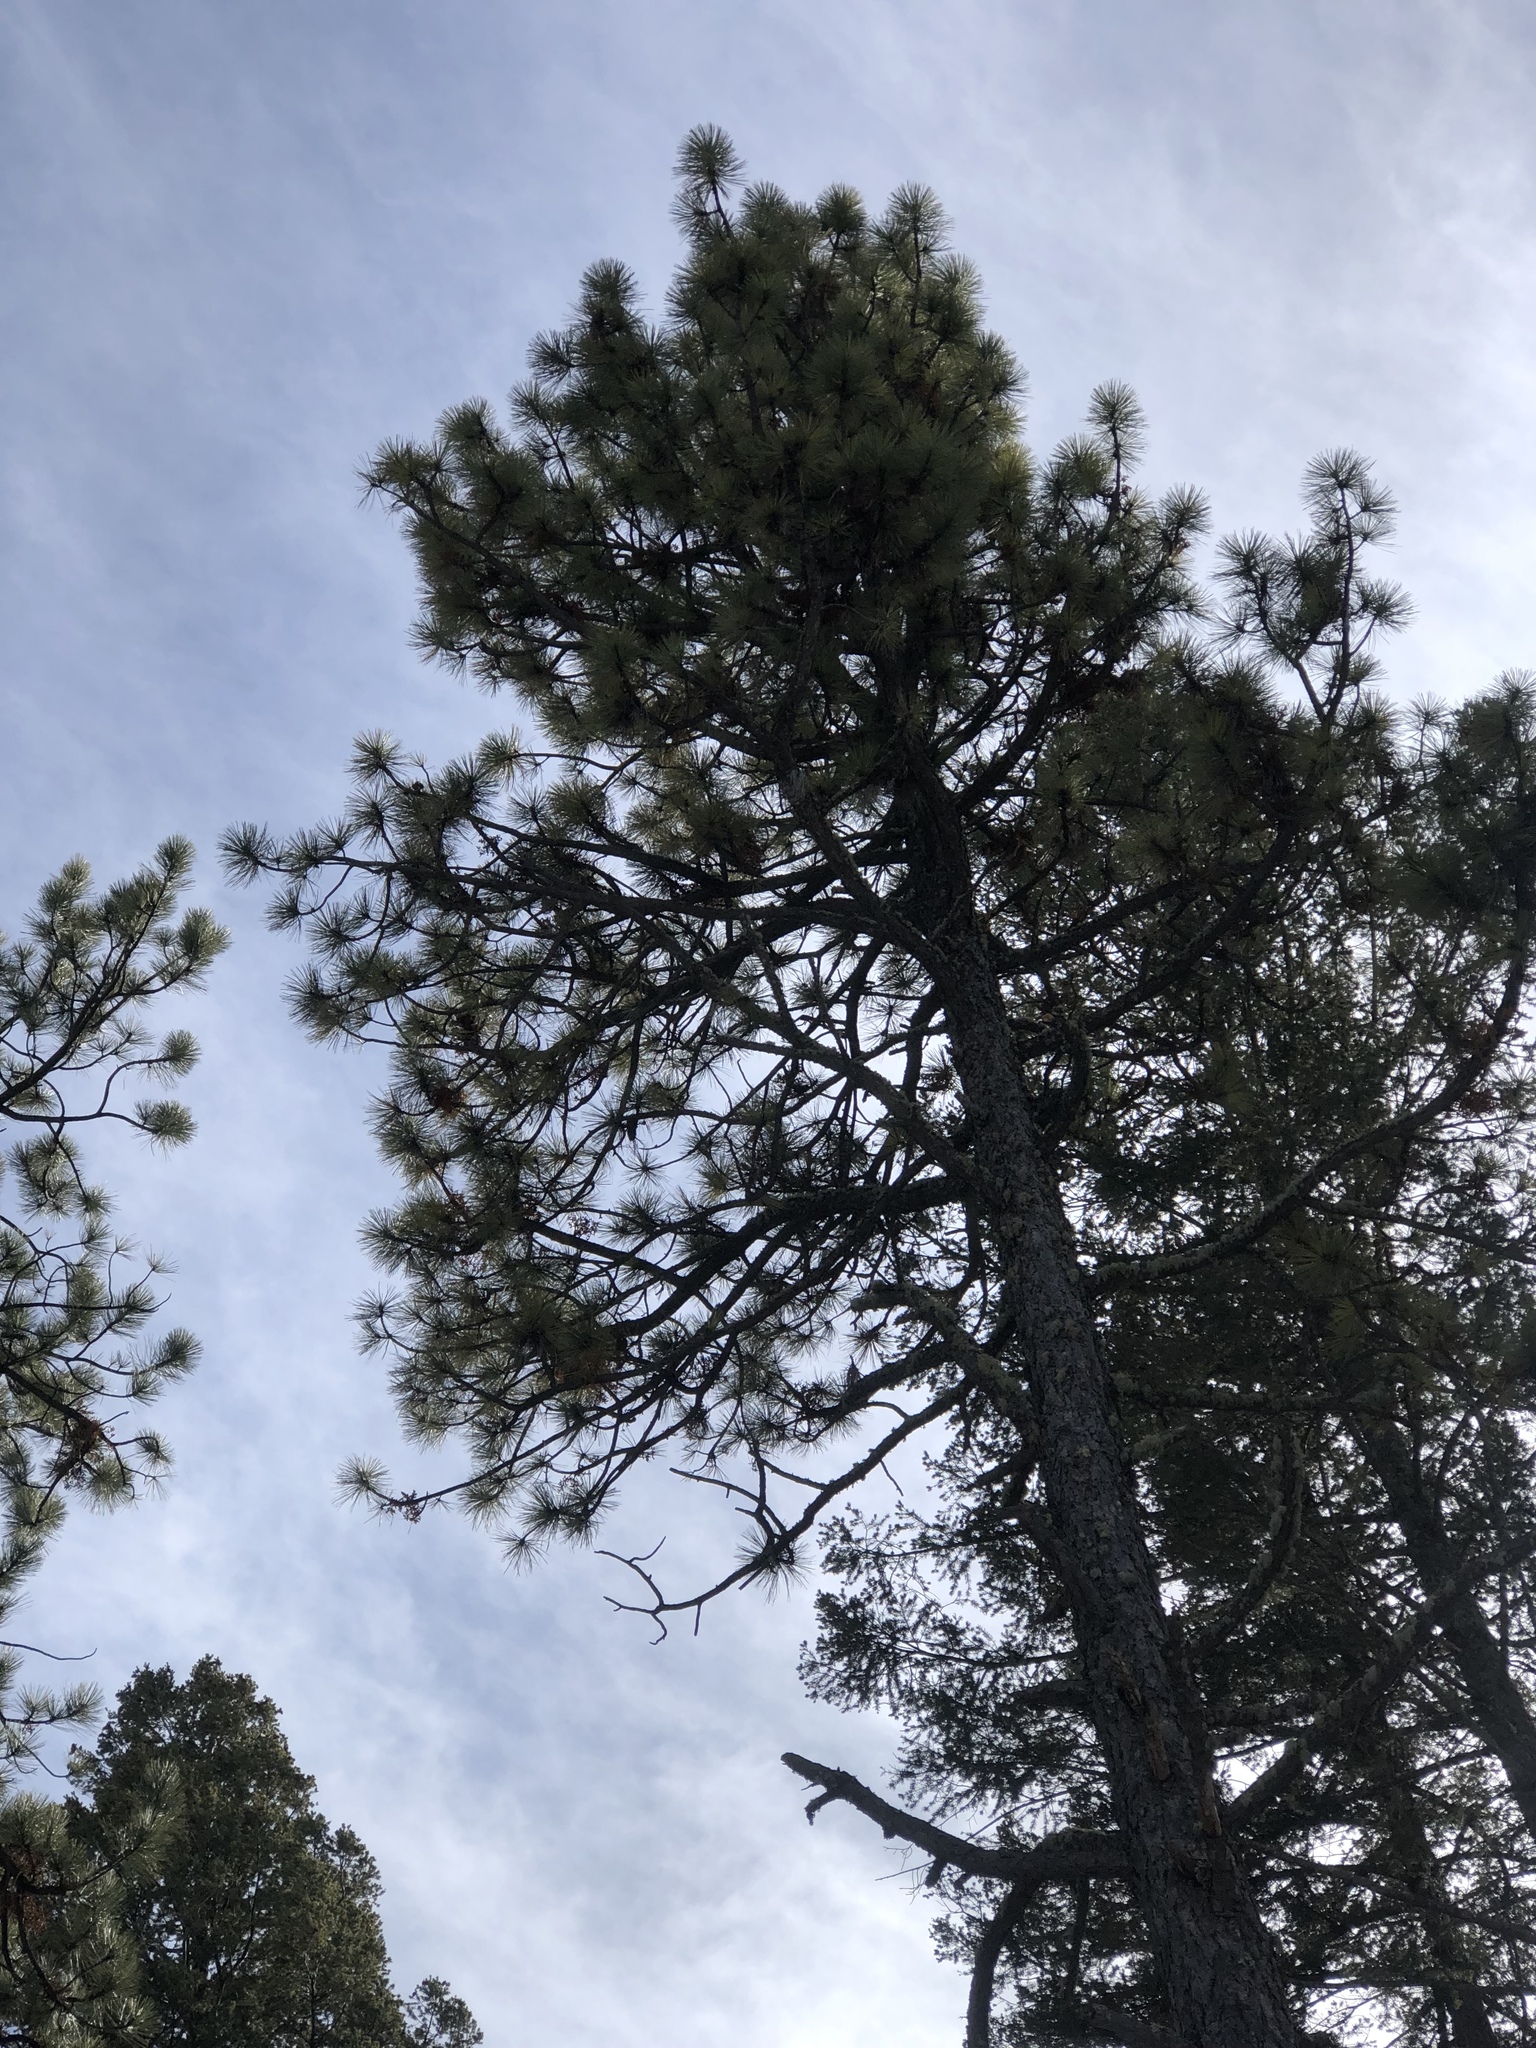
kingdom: Plantae
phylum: Tracheophyta
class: Pinopsida
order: Pinales
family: Pinaceae
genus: Pinus
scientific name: Pinus ponderosa
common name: Western yellow-pine
